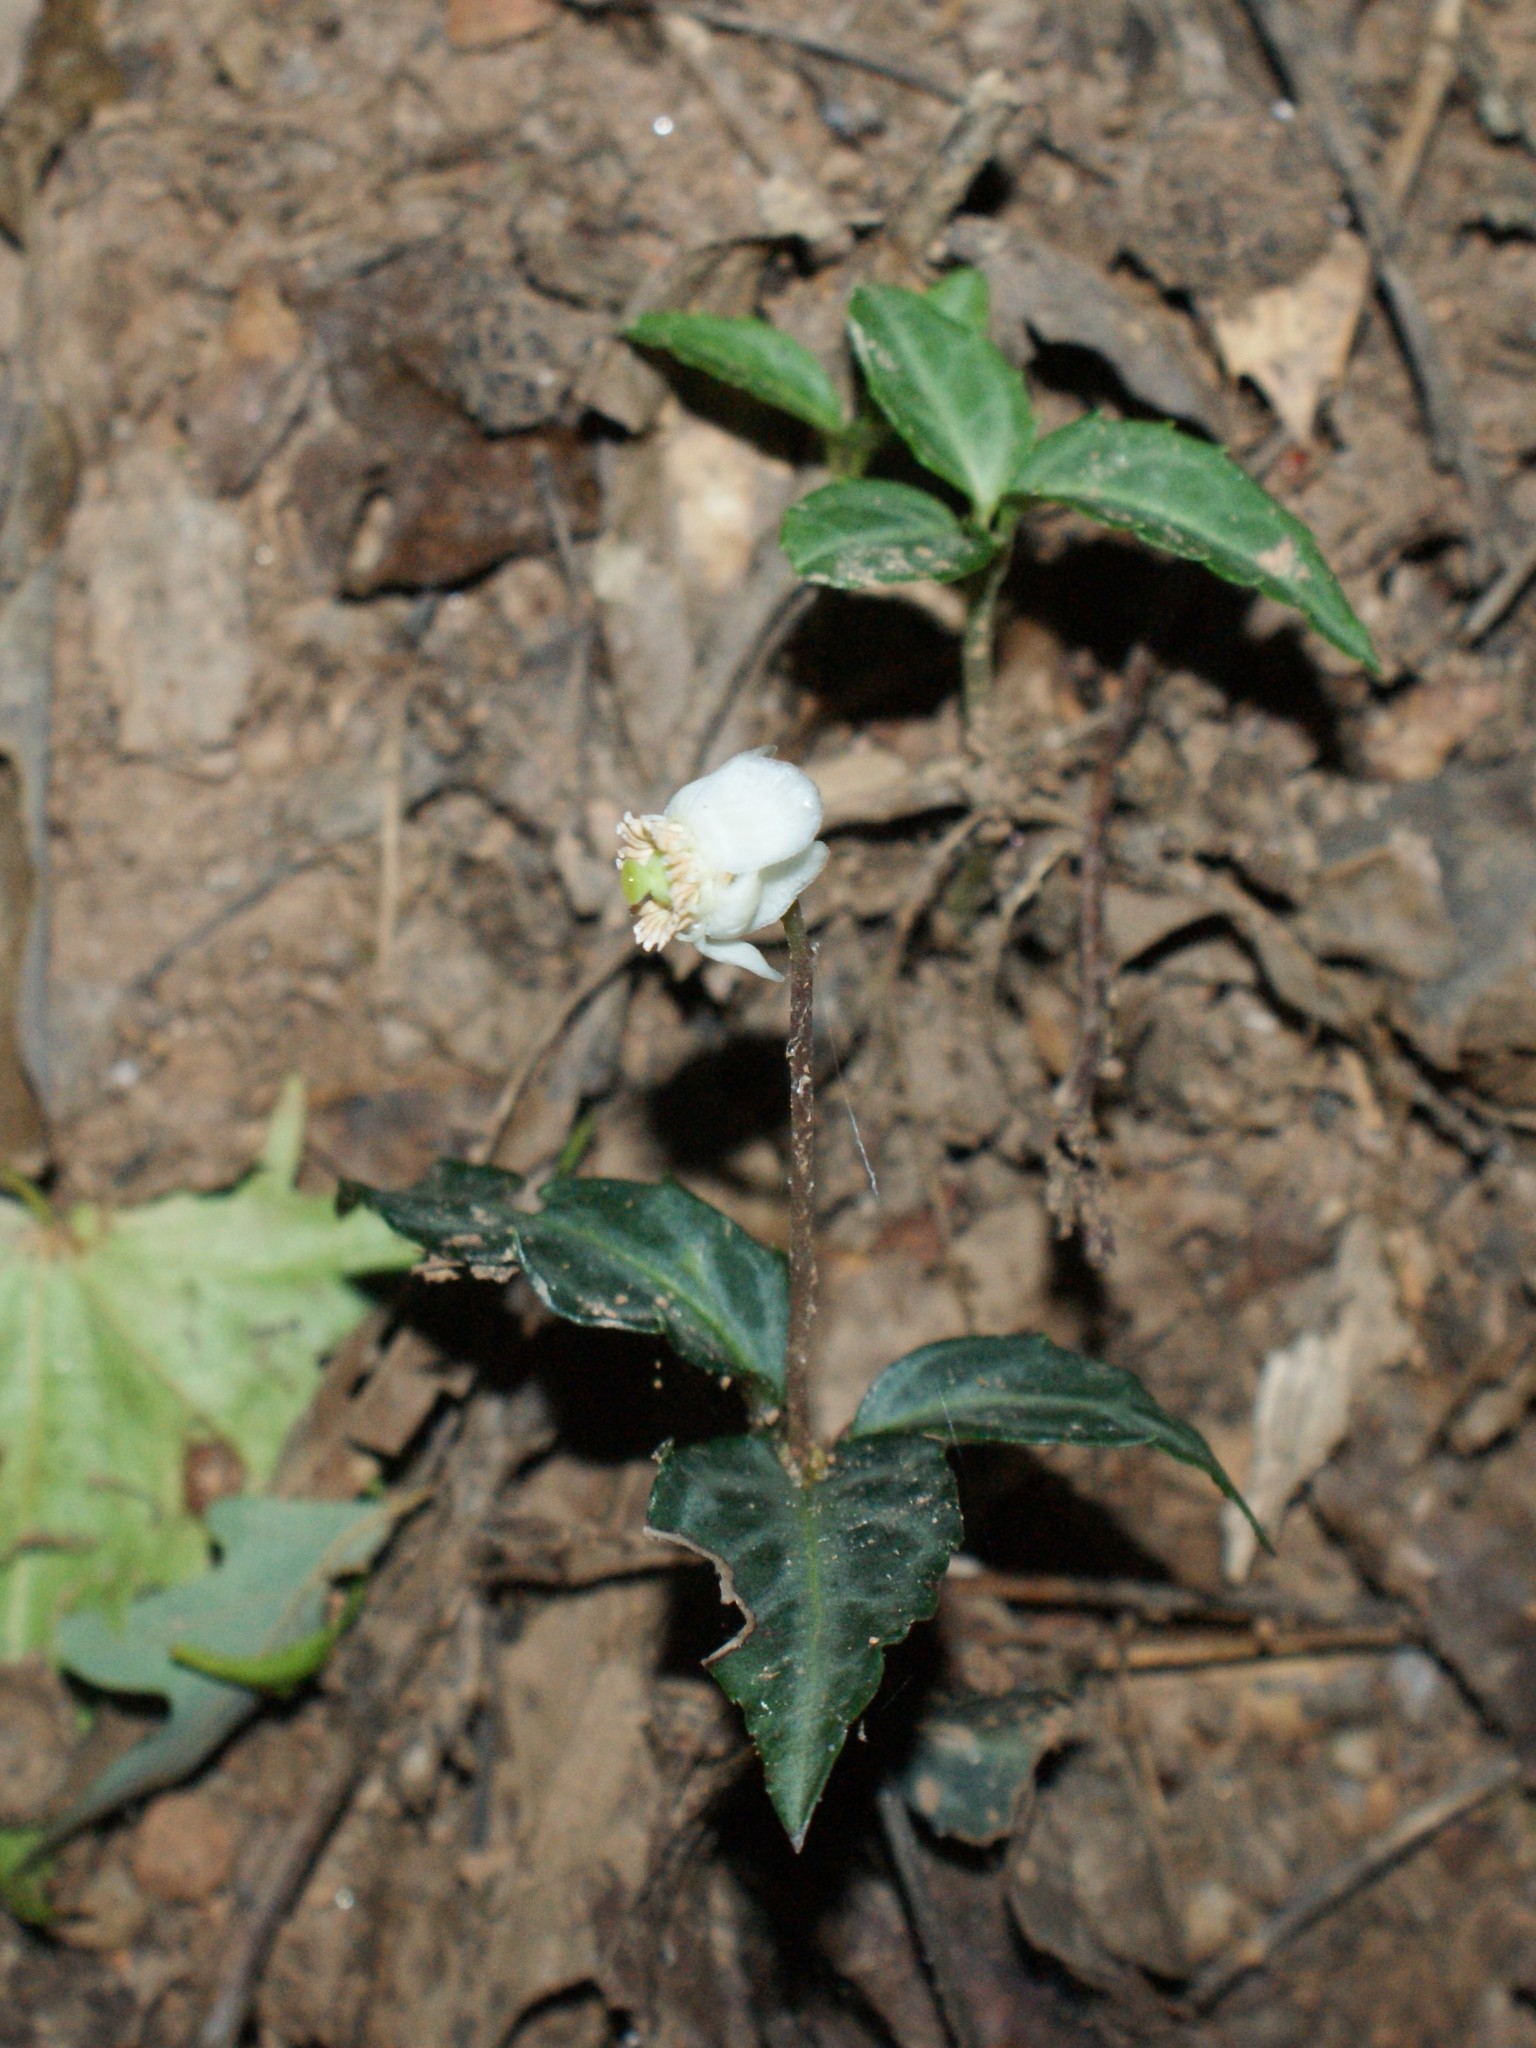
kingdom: Plantae
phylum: Tracheophyta
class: Magnoliopsida
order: Ericales
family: Ericaceae
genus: Chimaphila
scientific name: Chimaphila maculata
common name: Spotted pipsissewa
